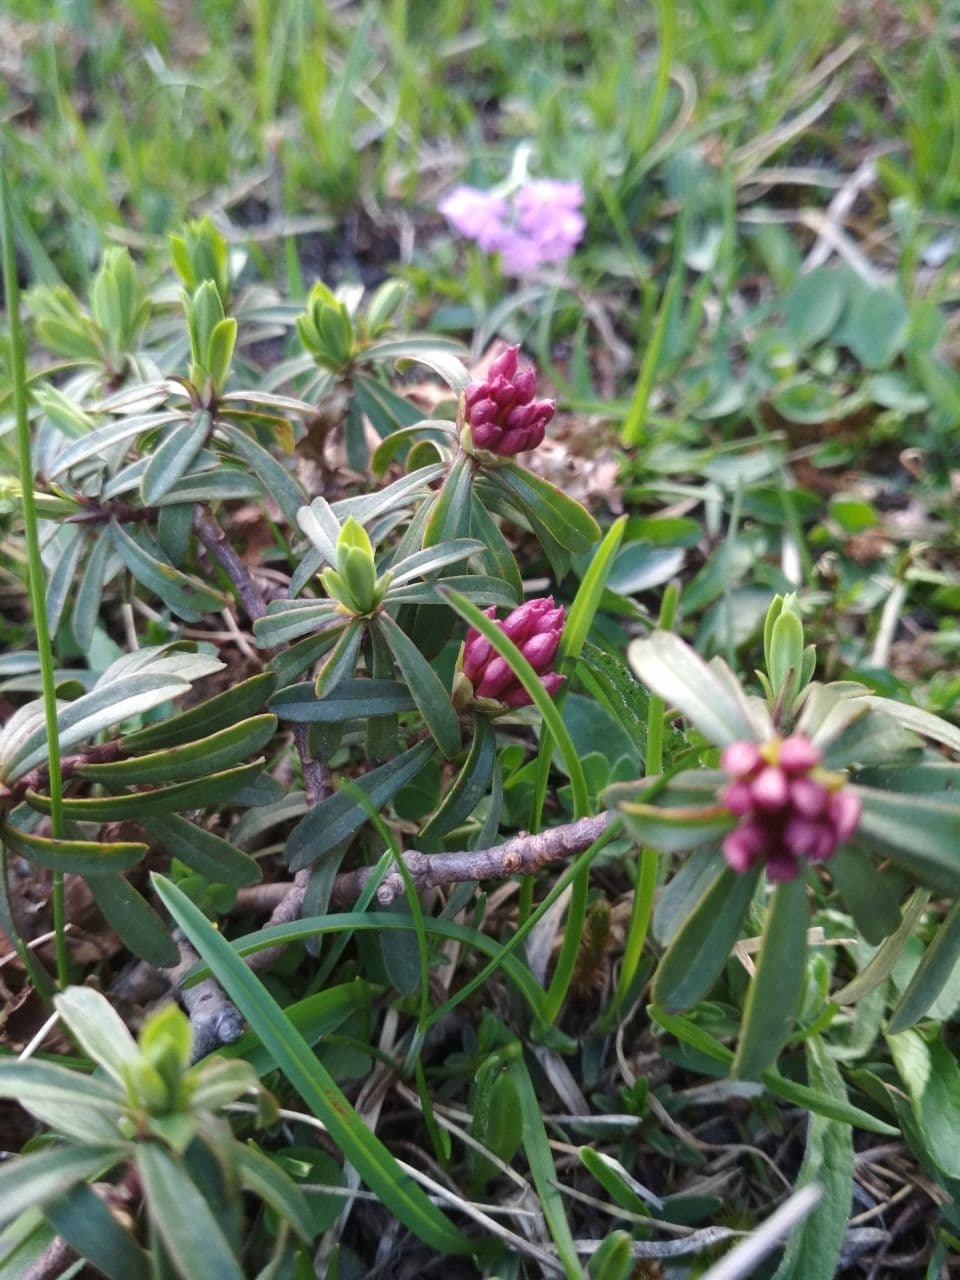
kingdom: Plantae
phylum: Tracheophyta
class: Magnoliopsida
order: Malvales
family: Thymelaeaceae
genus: Daphne
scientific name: Daphne striata
